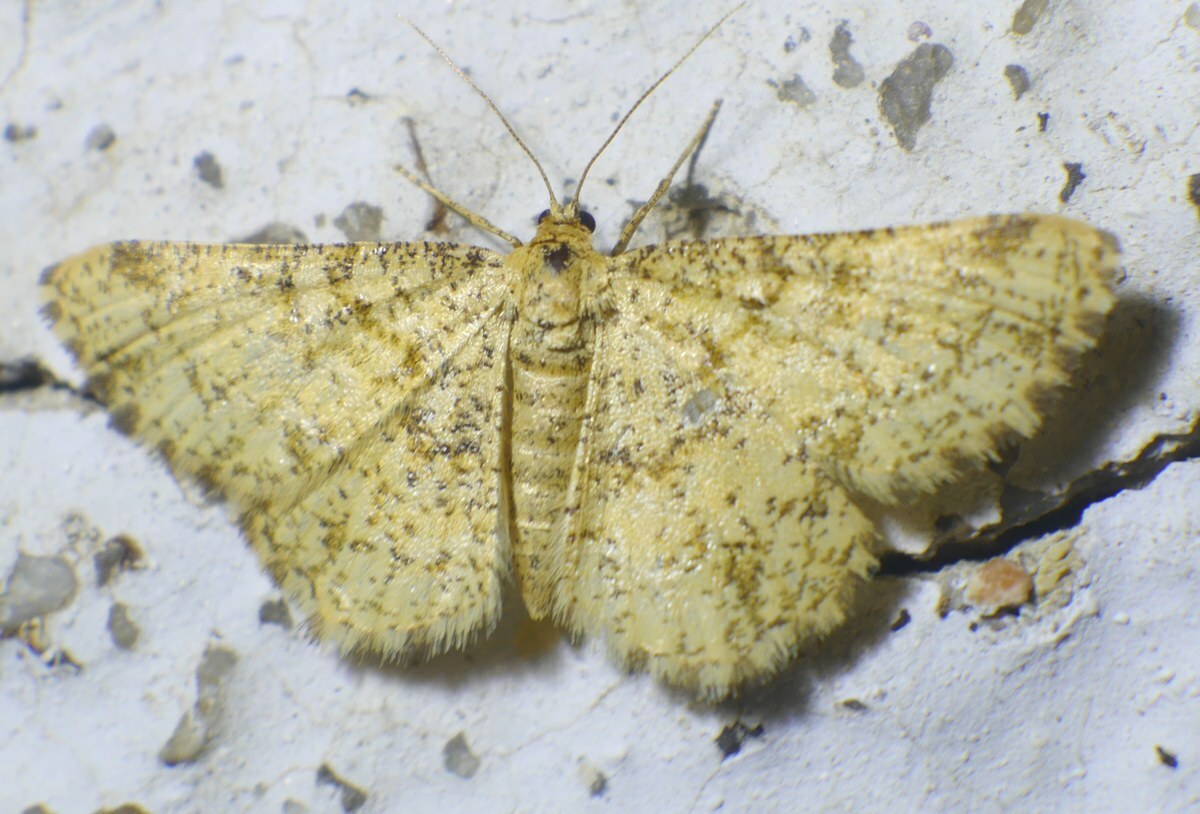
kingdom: Animalia
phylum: Arthropoda
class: Insecta
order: Lepidoptera
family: Geometridae
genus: Heliomata
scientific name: Heliomata glarearia
